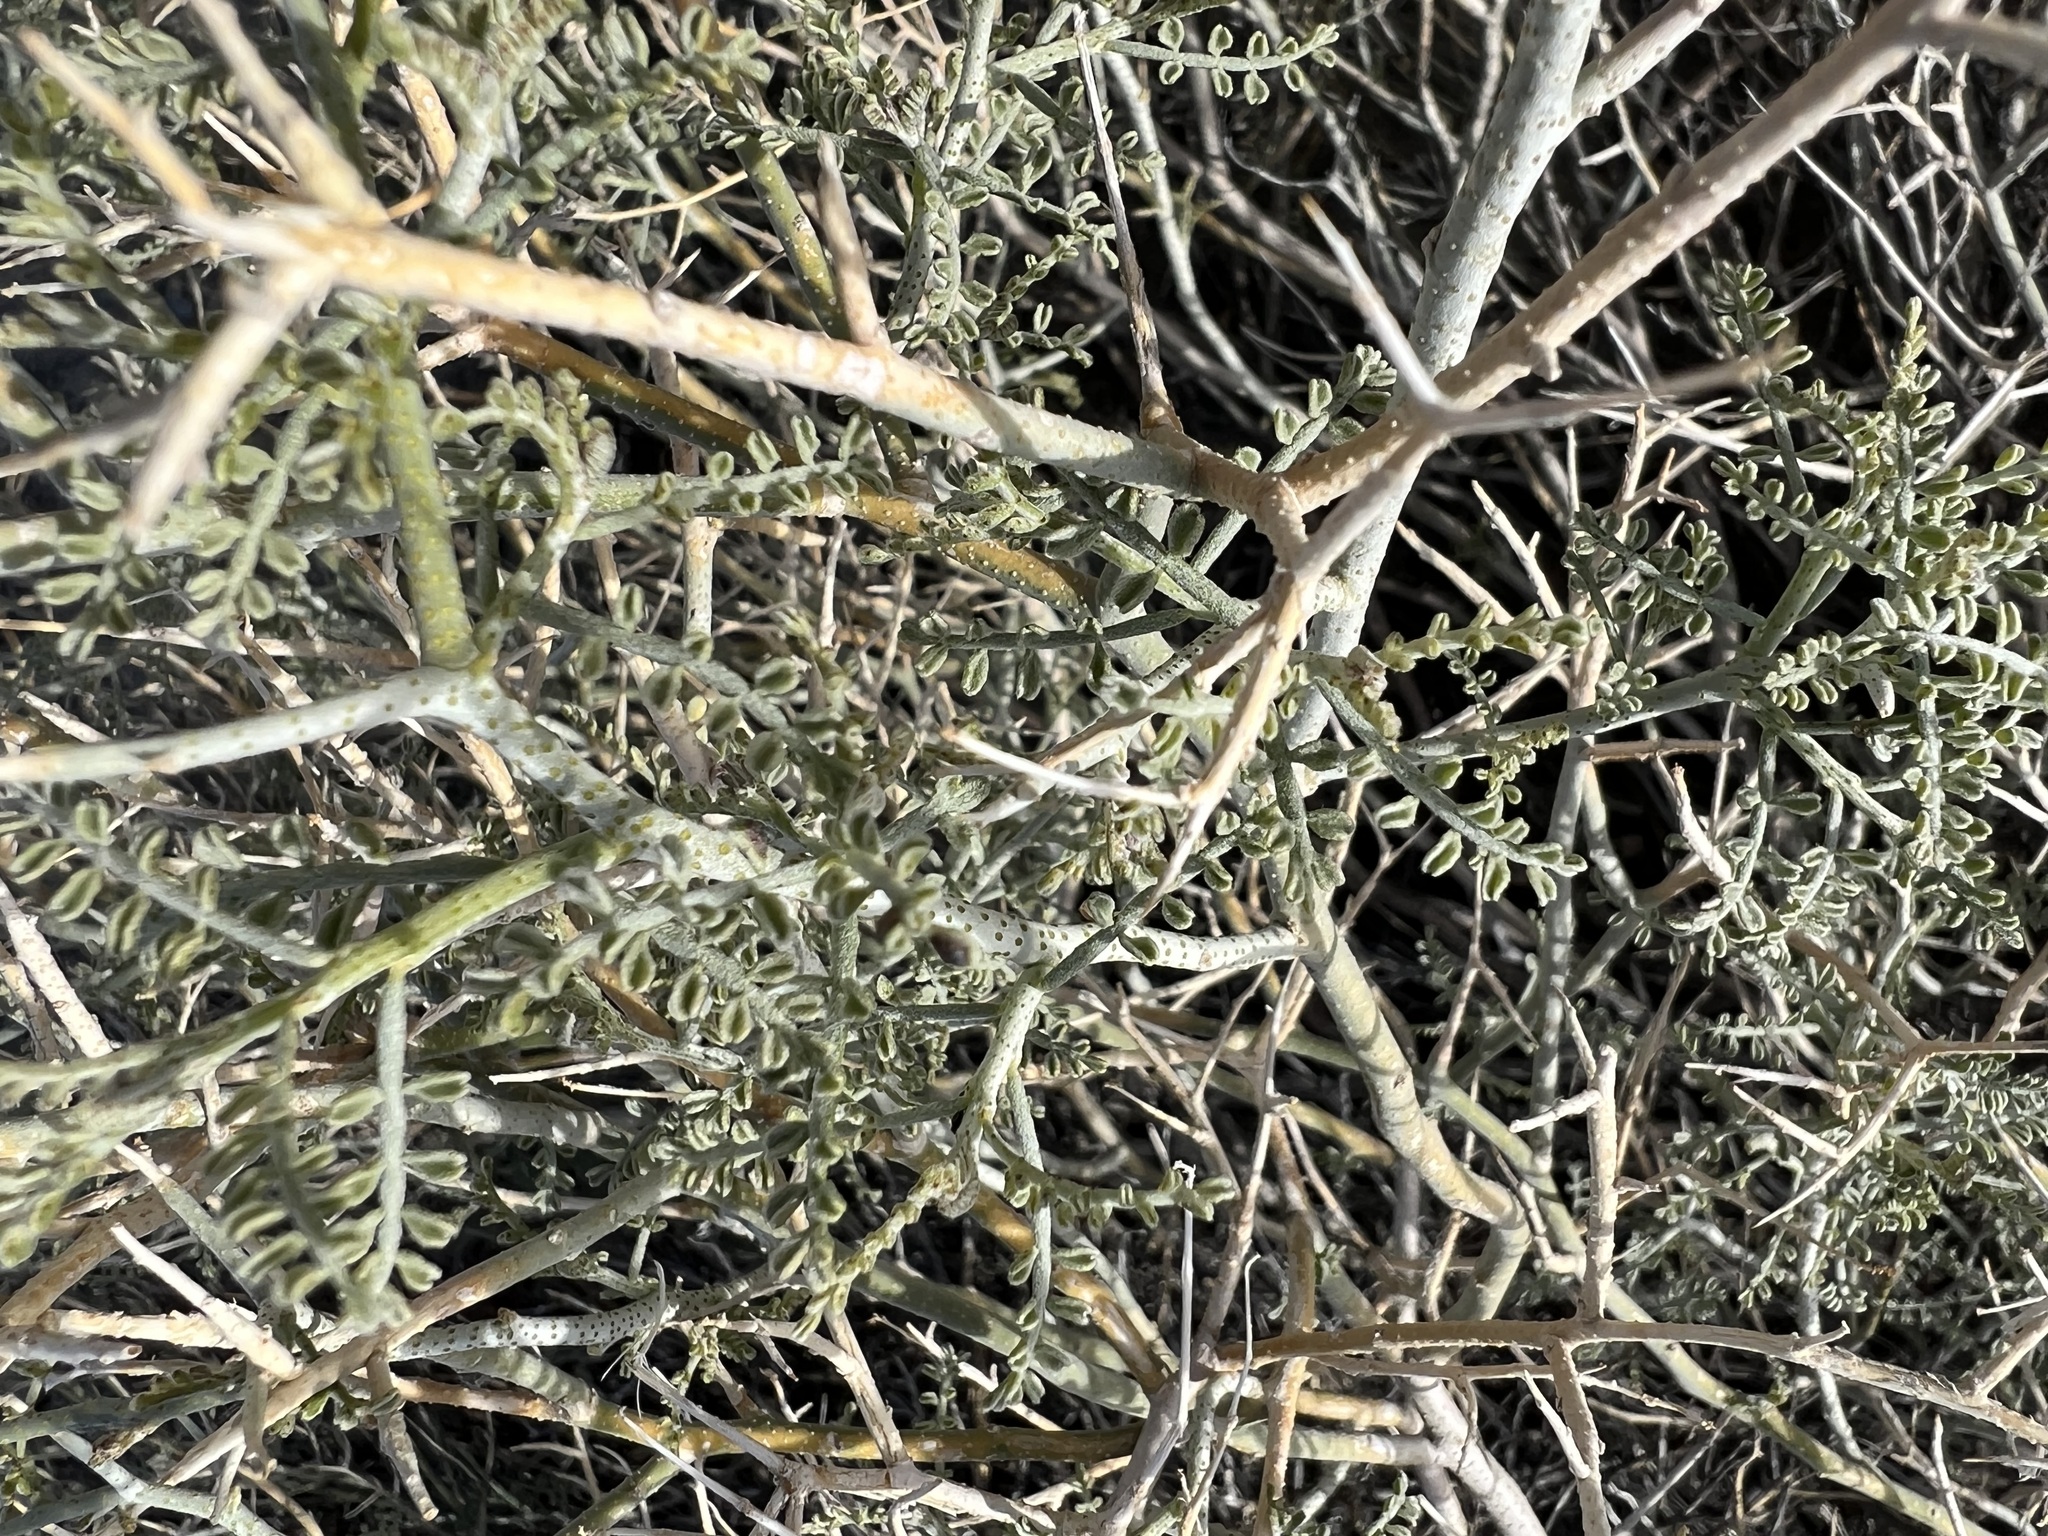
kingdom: Plantae
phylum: Tracheophyta
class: Magnoliopsida
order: Fabales
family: Fabaceae
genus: Psorothamnus
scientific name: Psorothamnus polydenius
